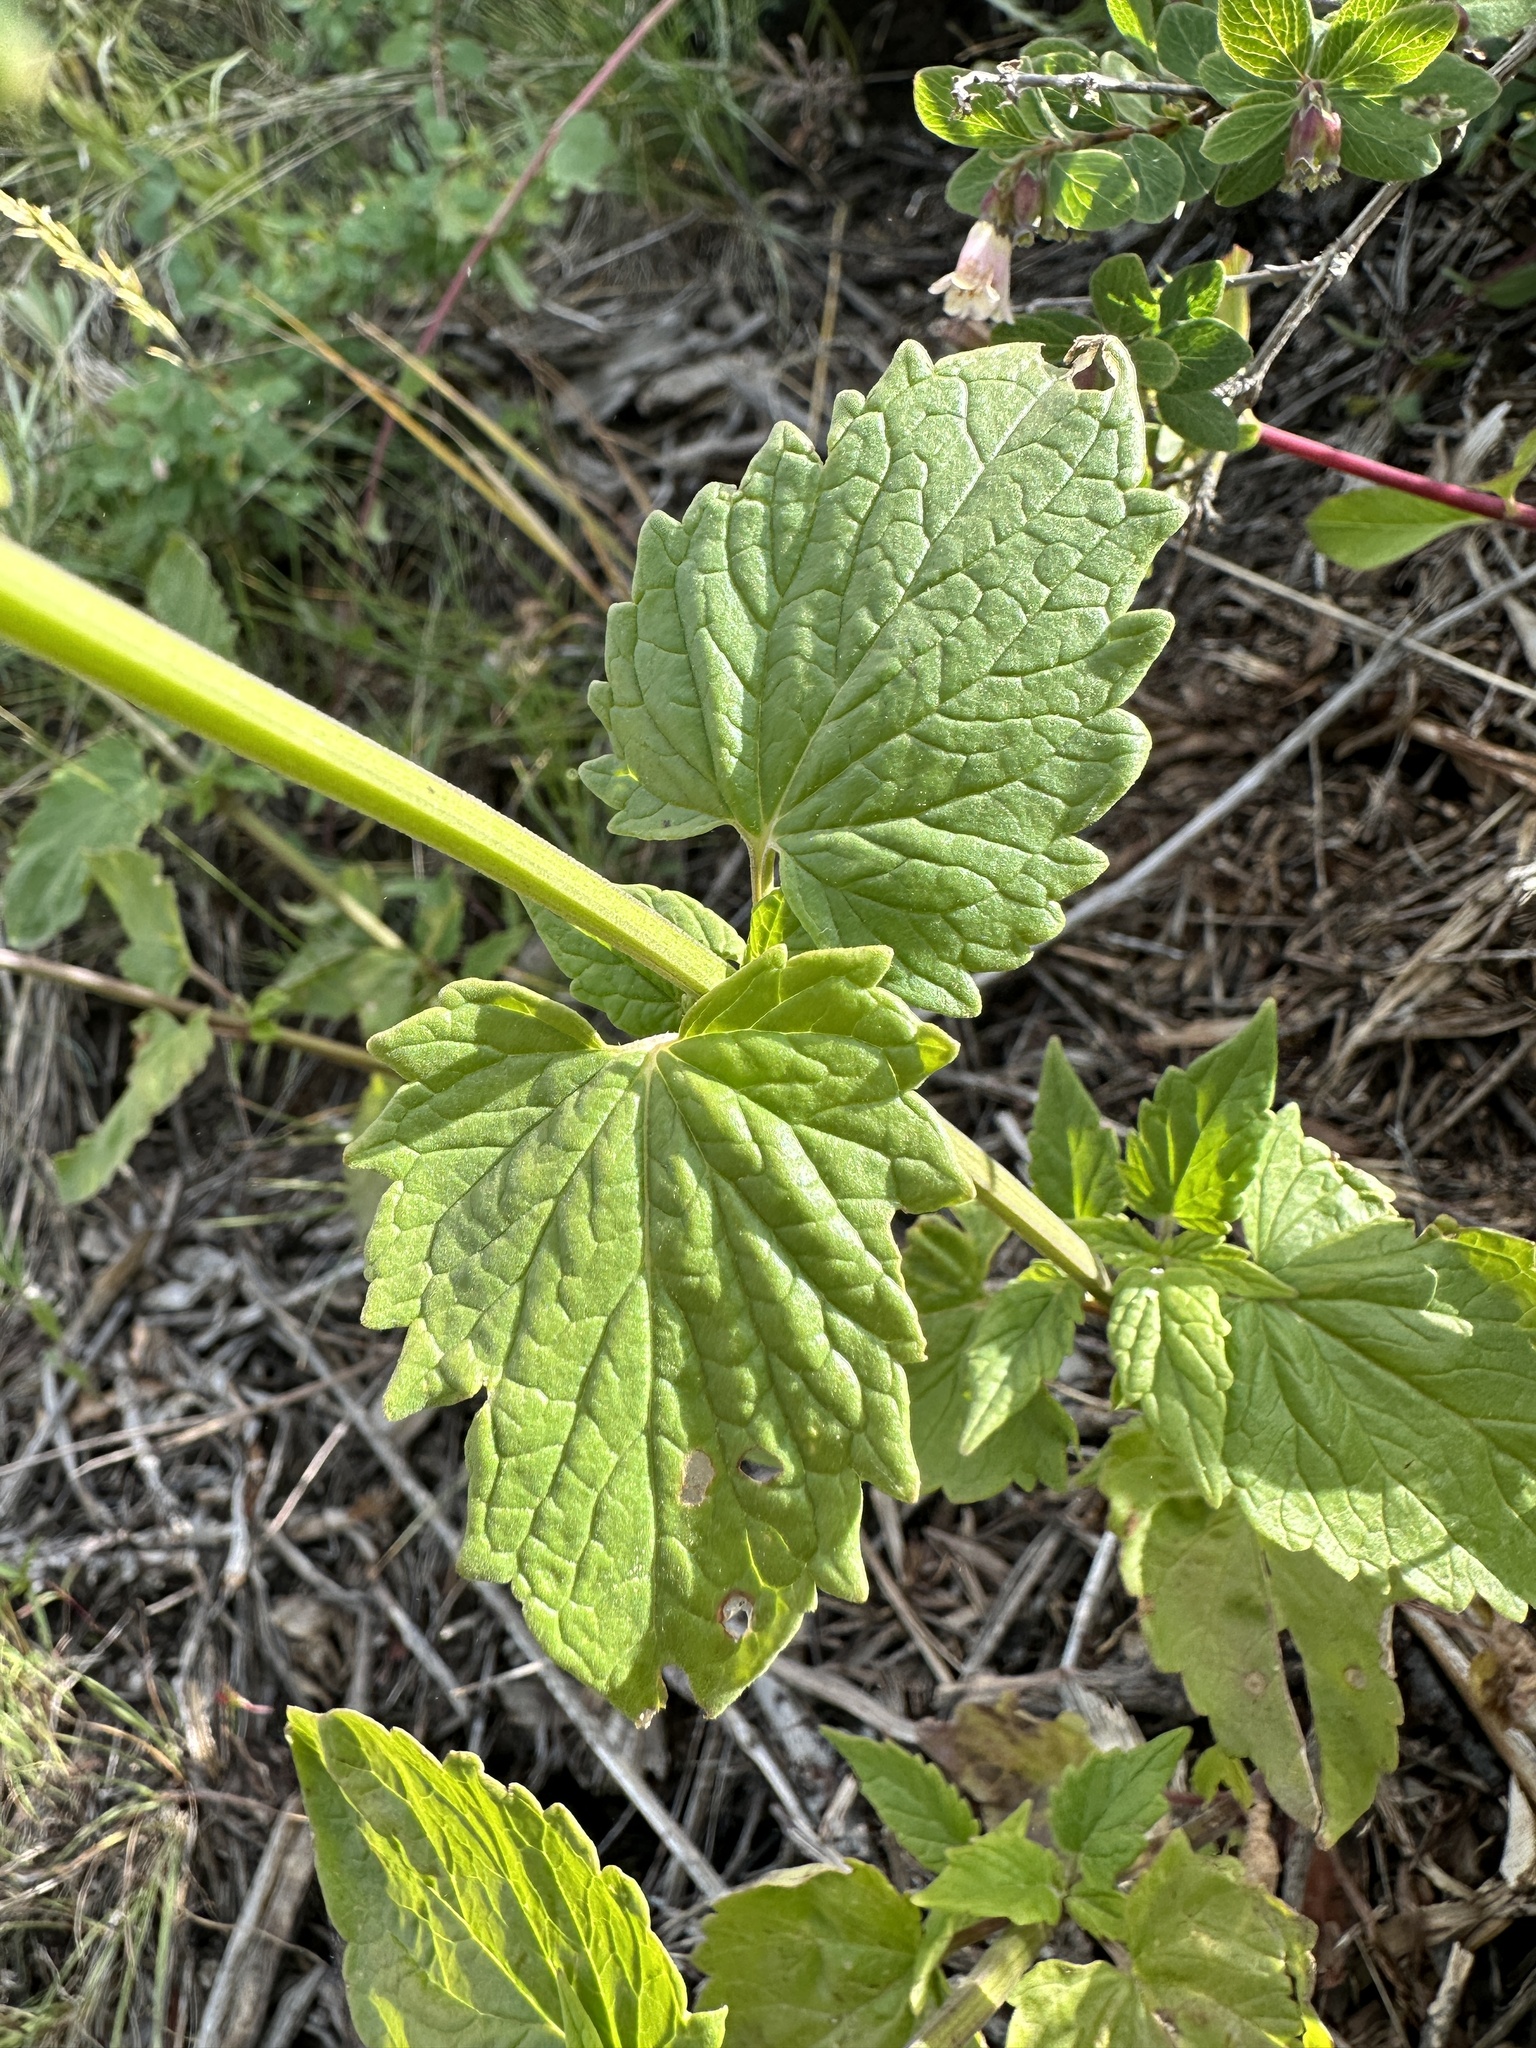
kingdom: Plantae
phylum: Tracheophyta
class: Magnoliopsida
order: Lamiales
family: Lamiaceae
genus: Agastache
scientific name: Agastache urticifolia
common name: Horsemint giant hyssop
